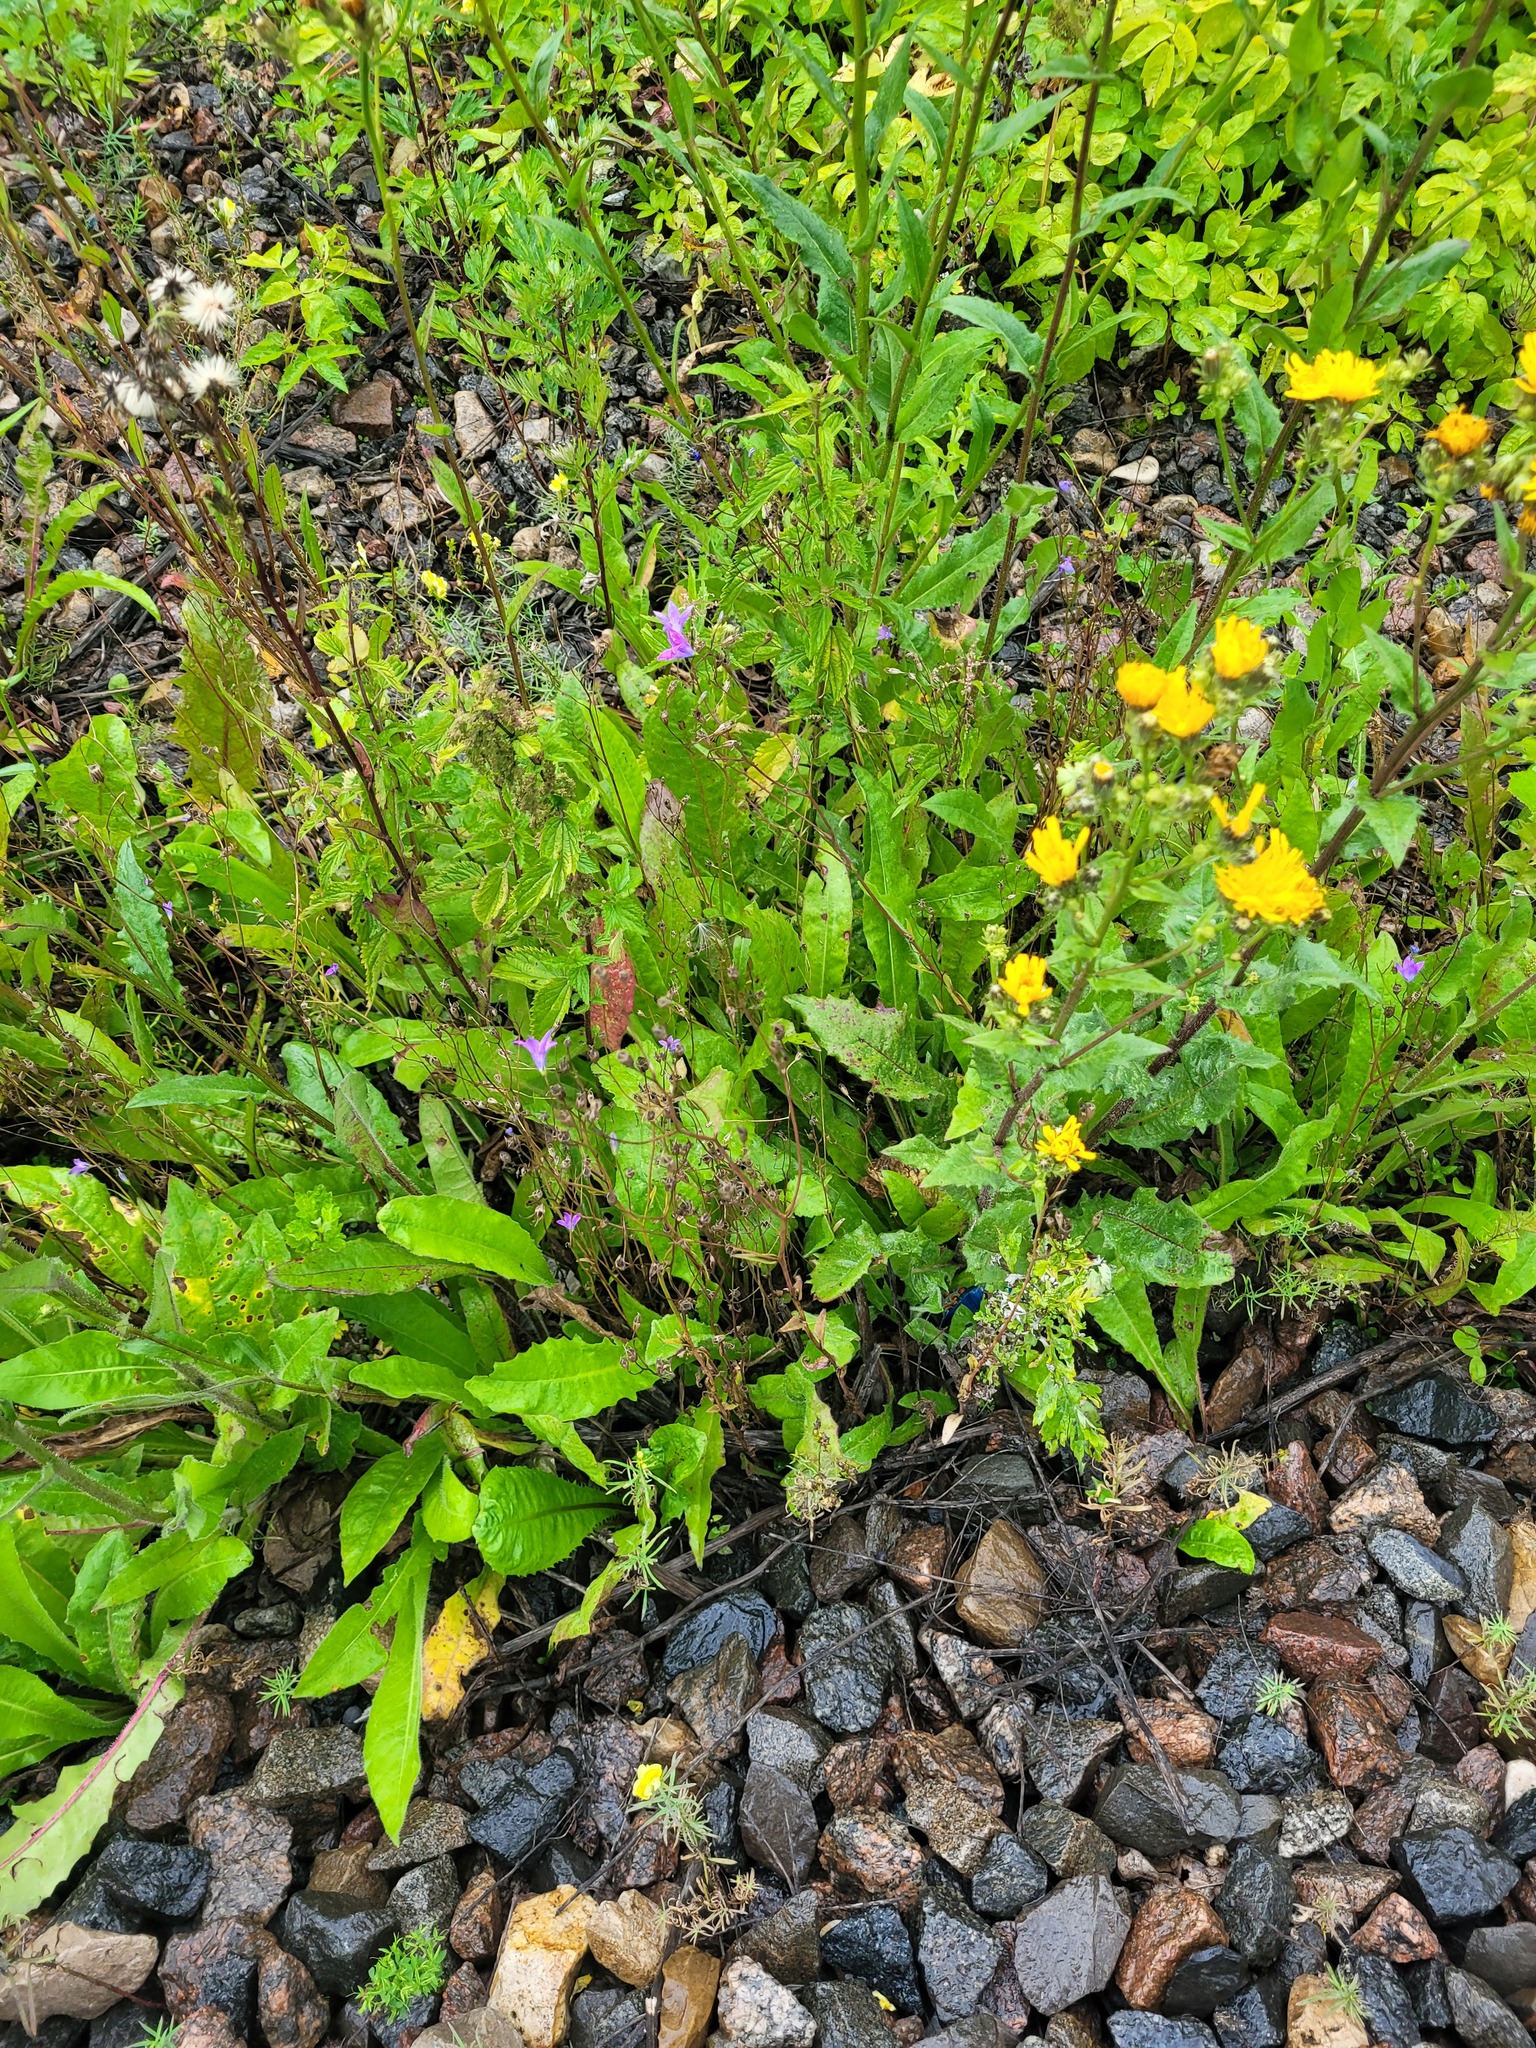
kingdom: Plantae
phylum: Tracheophyta
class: Magnoliopsida
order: Asterales
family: Campanulaceae
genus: Campanula
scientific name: Campanula patula
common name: Spreading bellflower
